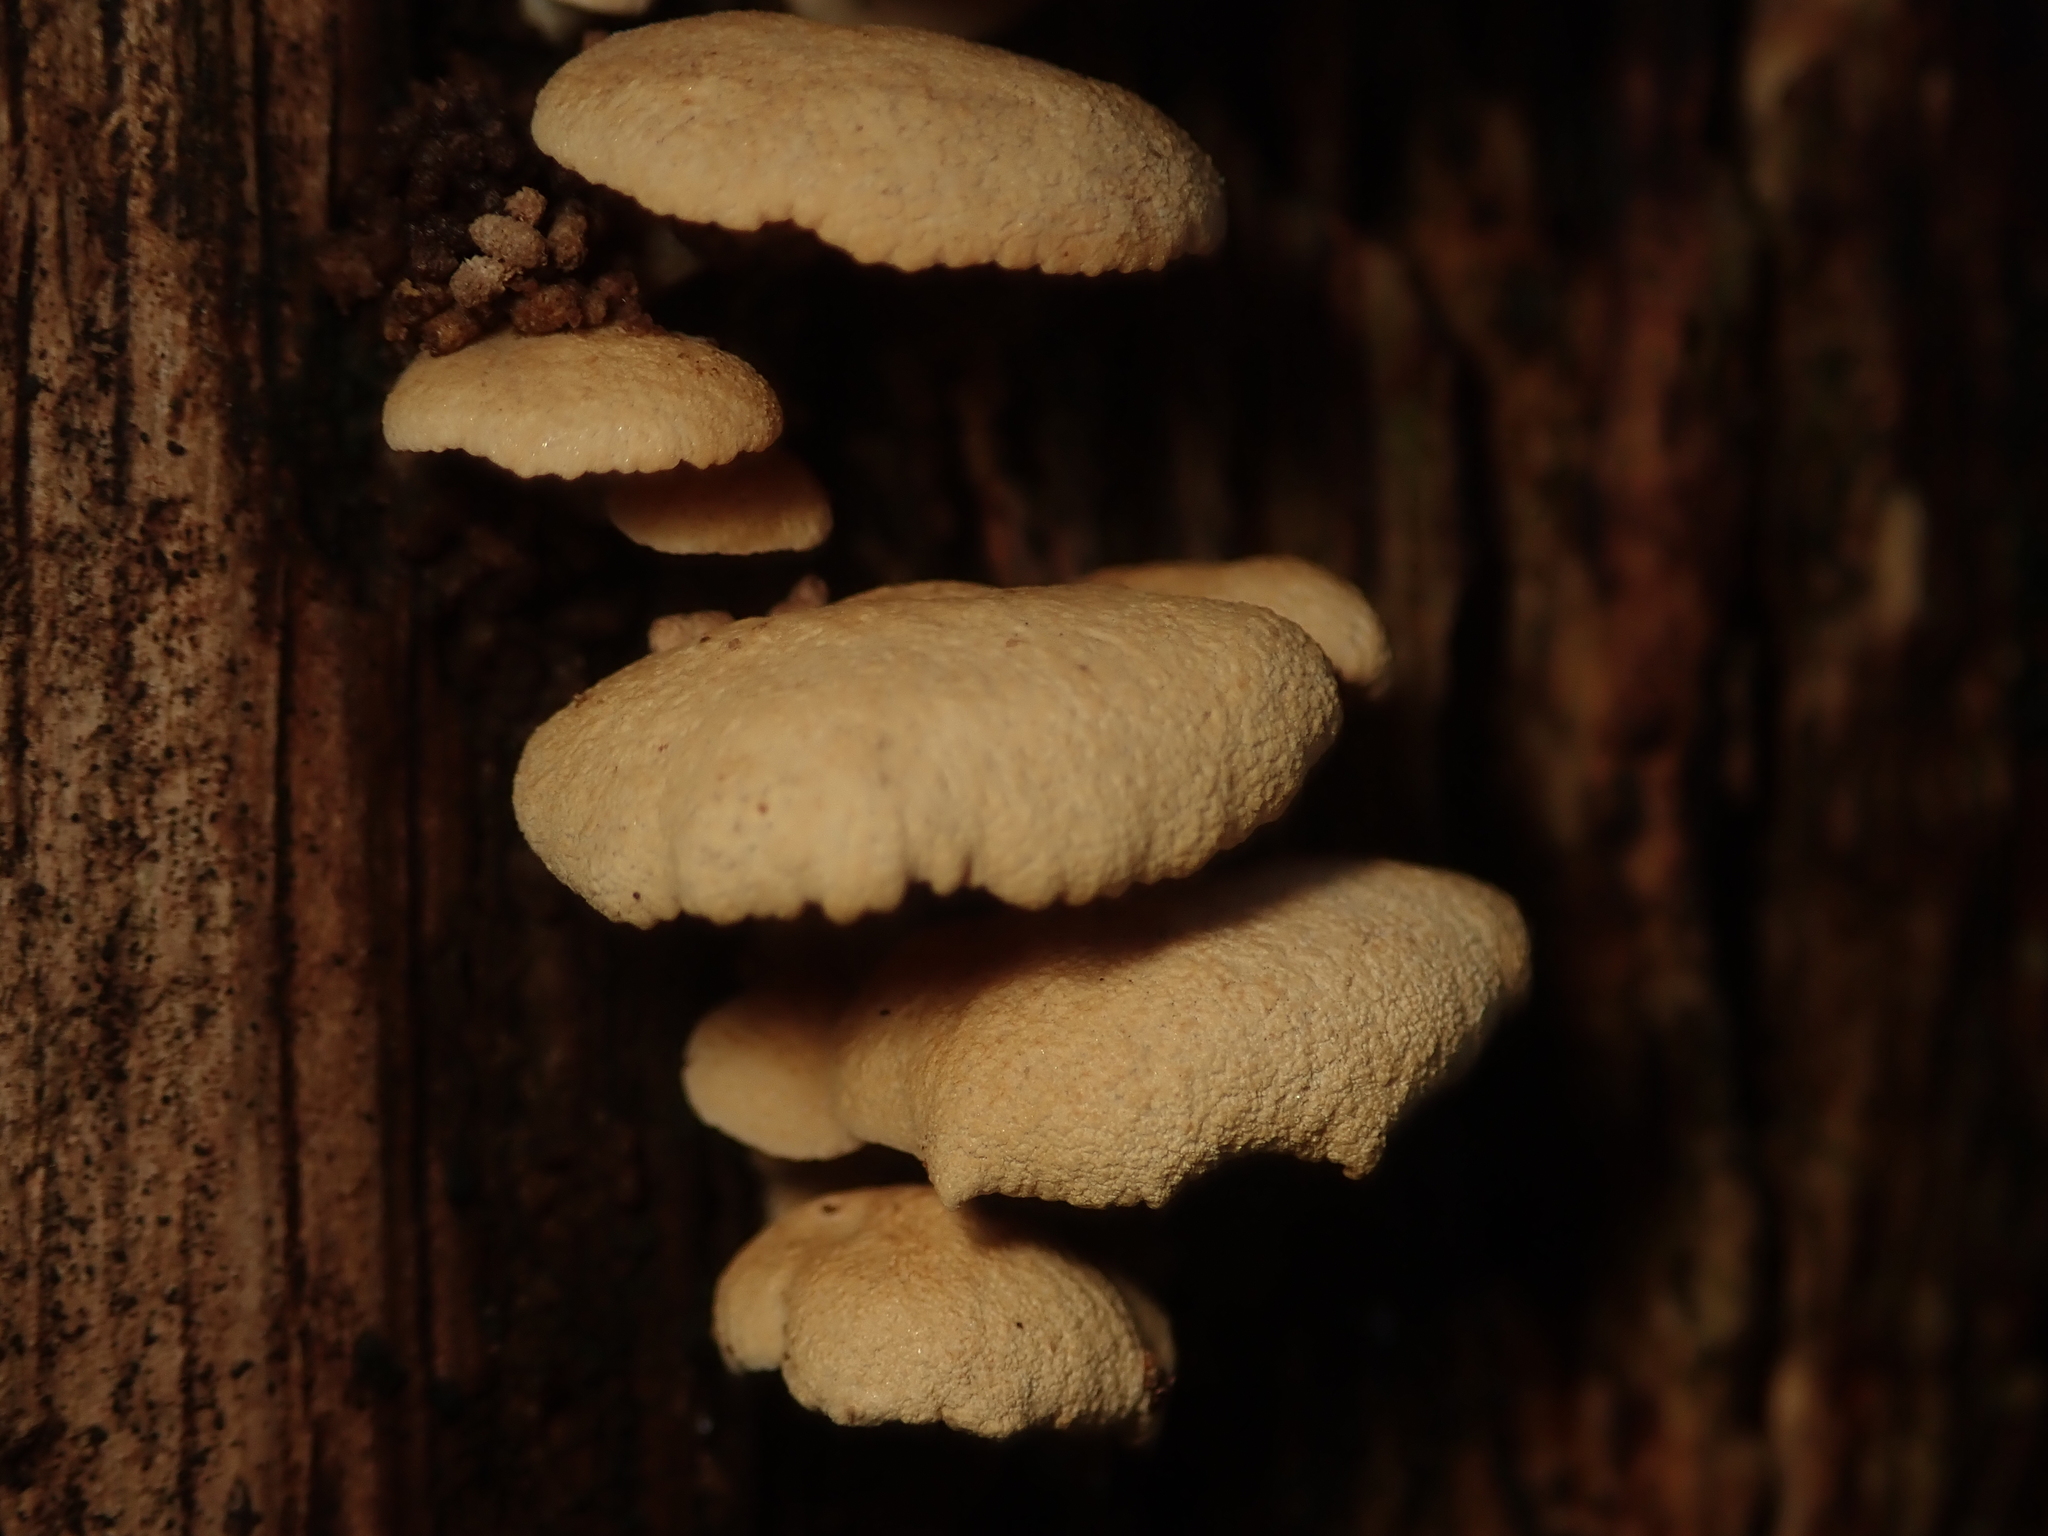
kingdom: Fungi
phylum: Basidiomycota
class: Agaricomycetes
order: Agaricales
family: Mycenaceae
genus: Panellus
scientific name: Panellus stipticus
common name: Bitter oysterling
